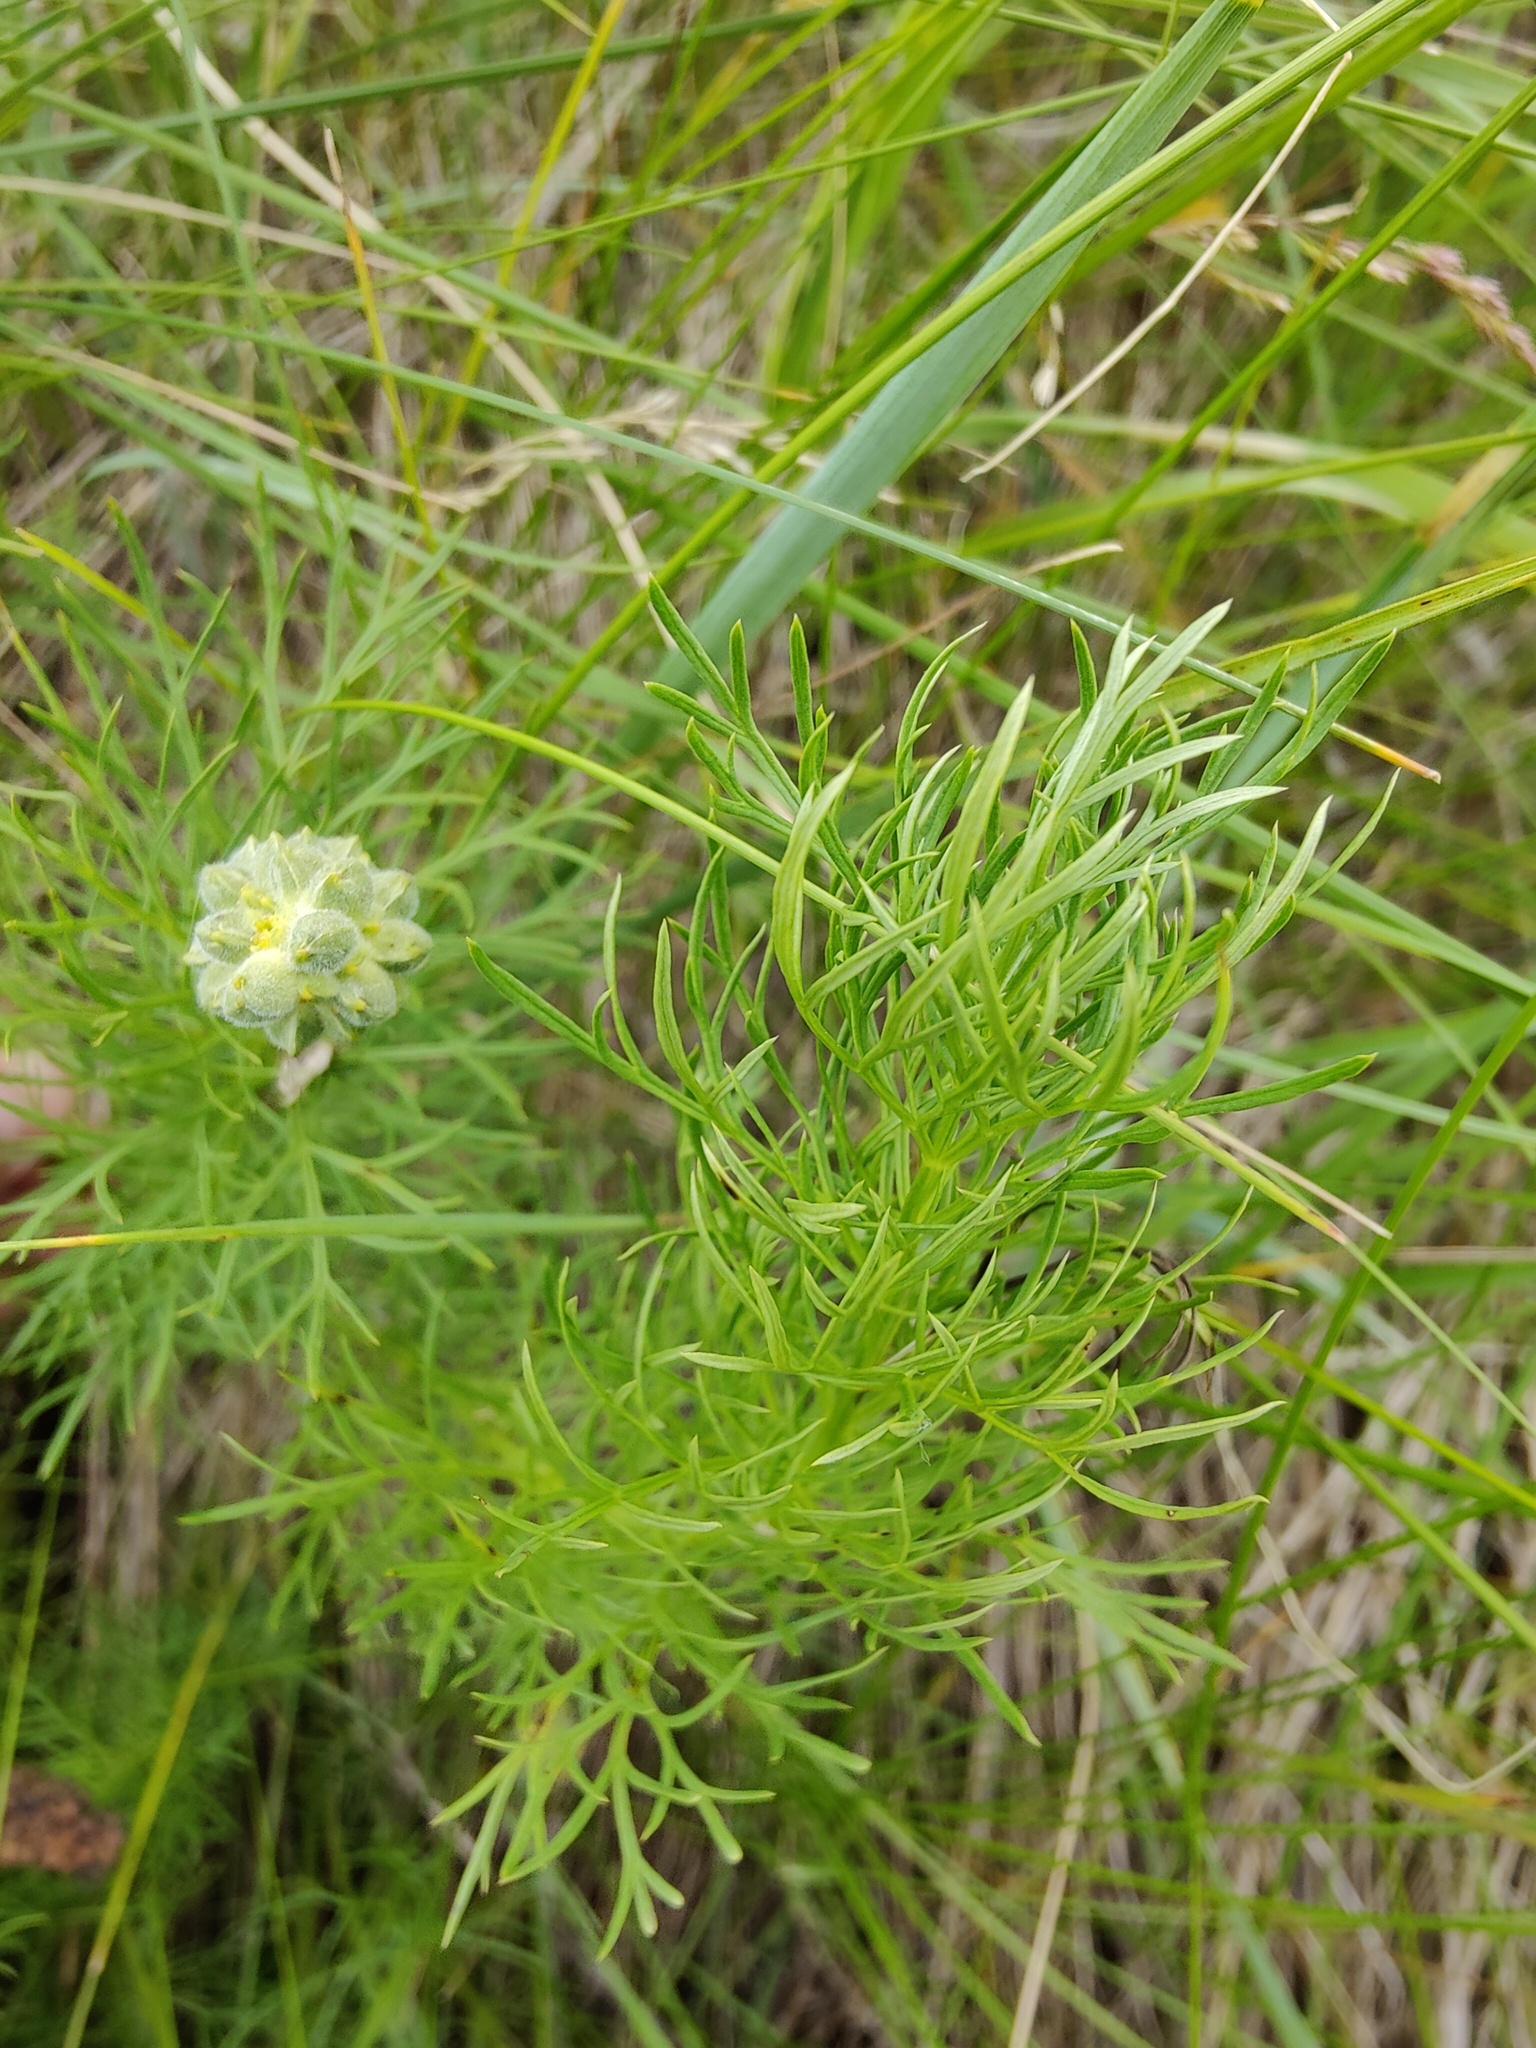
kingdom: Plantae
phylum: Tracheophyta
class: Magnoliopsida
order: Ranunculales
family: Ranunculaceae
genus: Adonis
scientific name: Adonis vernalis
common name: Yellow pheasants-eye
